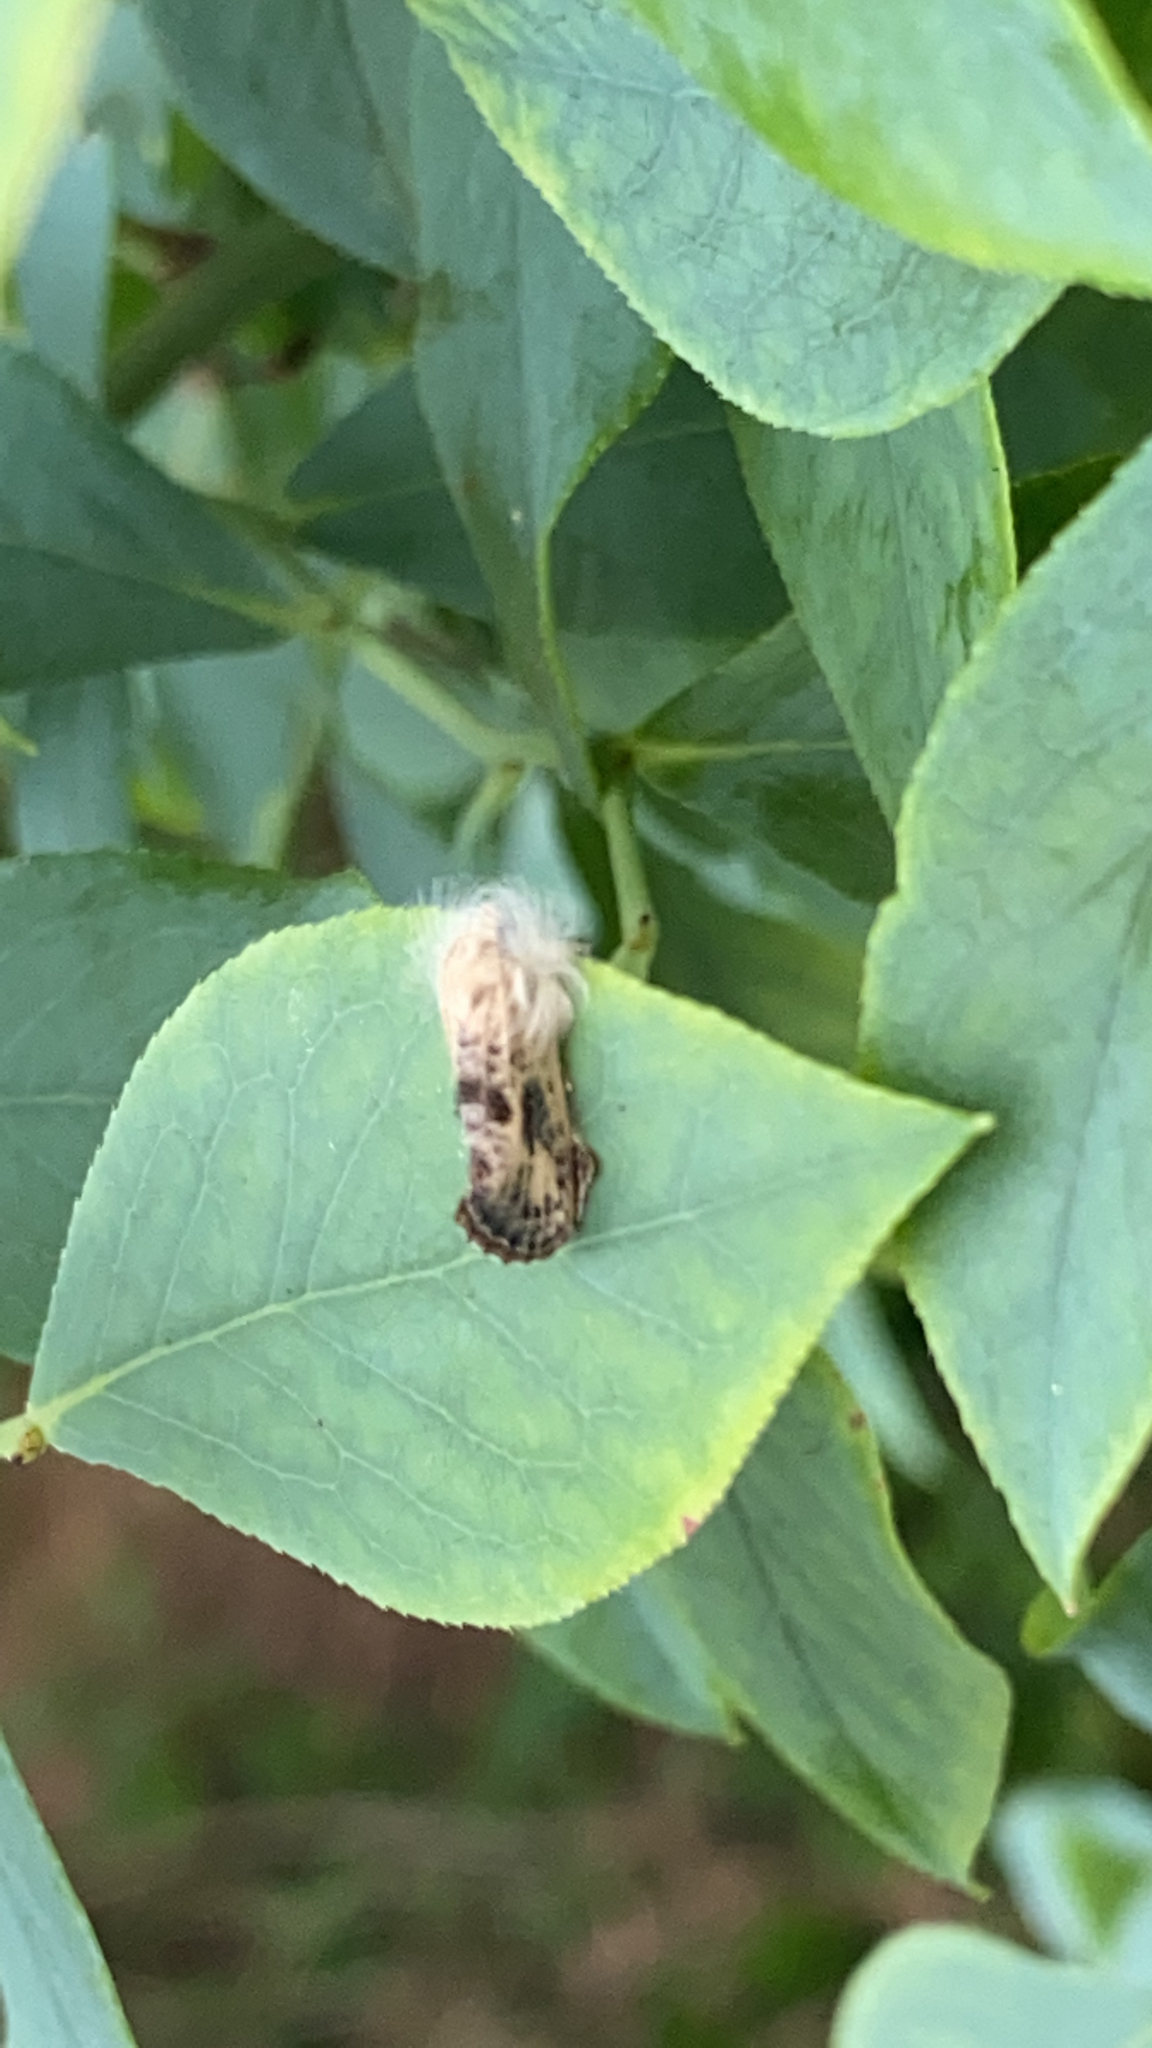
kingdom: Animalia
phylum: Arthropoda
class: Insecta
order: Lepidoptera
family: Tineidae
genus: Acrolophus
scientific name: Acrolophus mycetophagus
